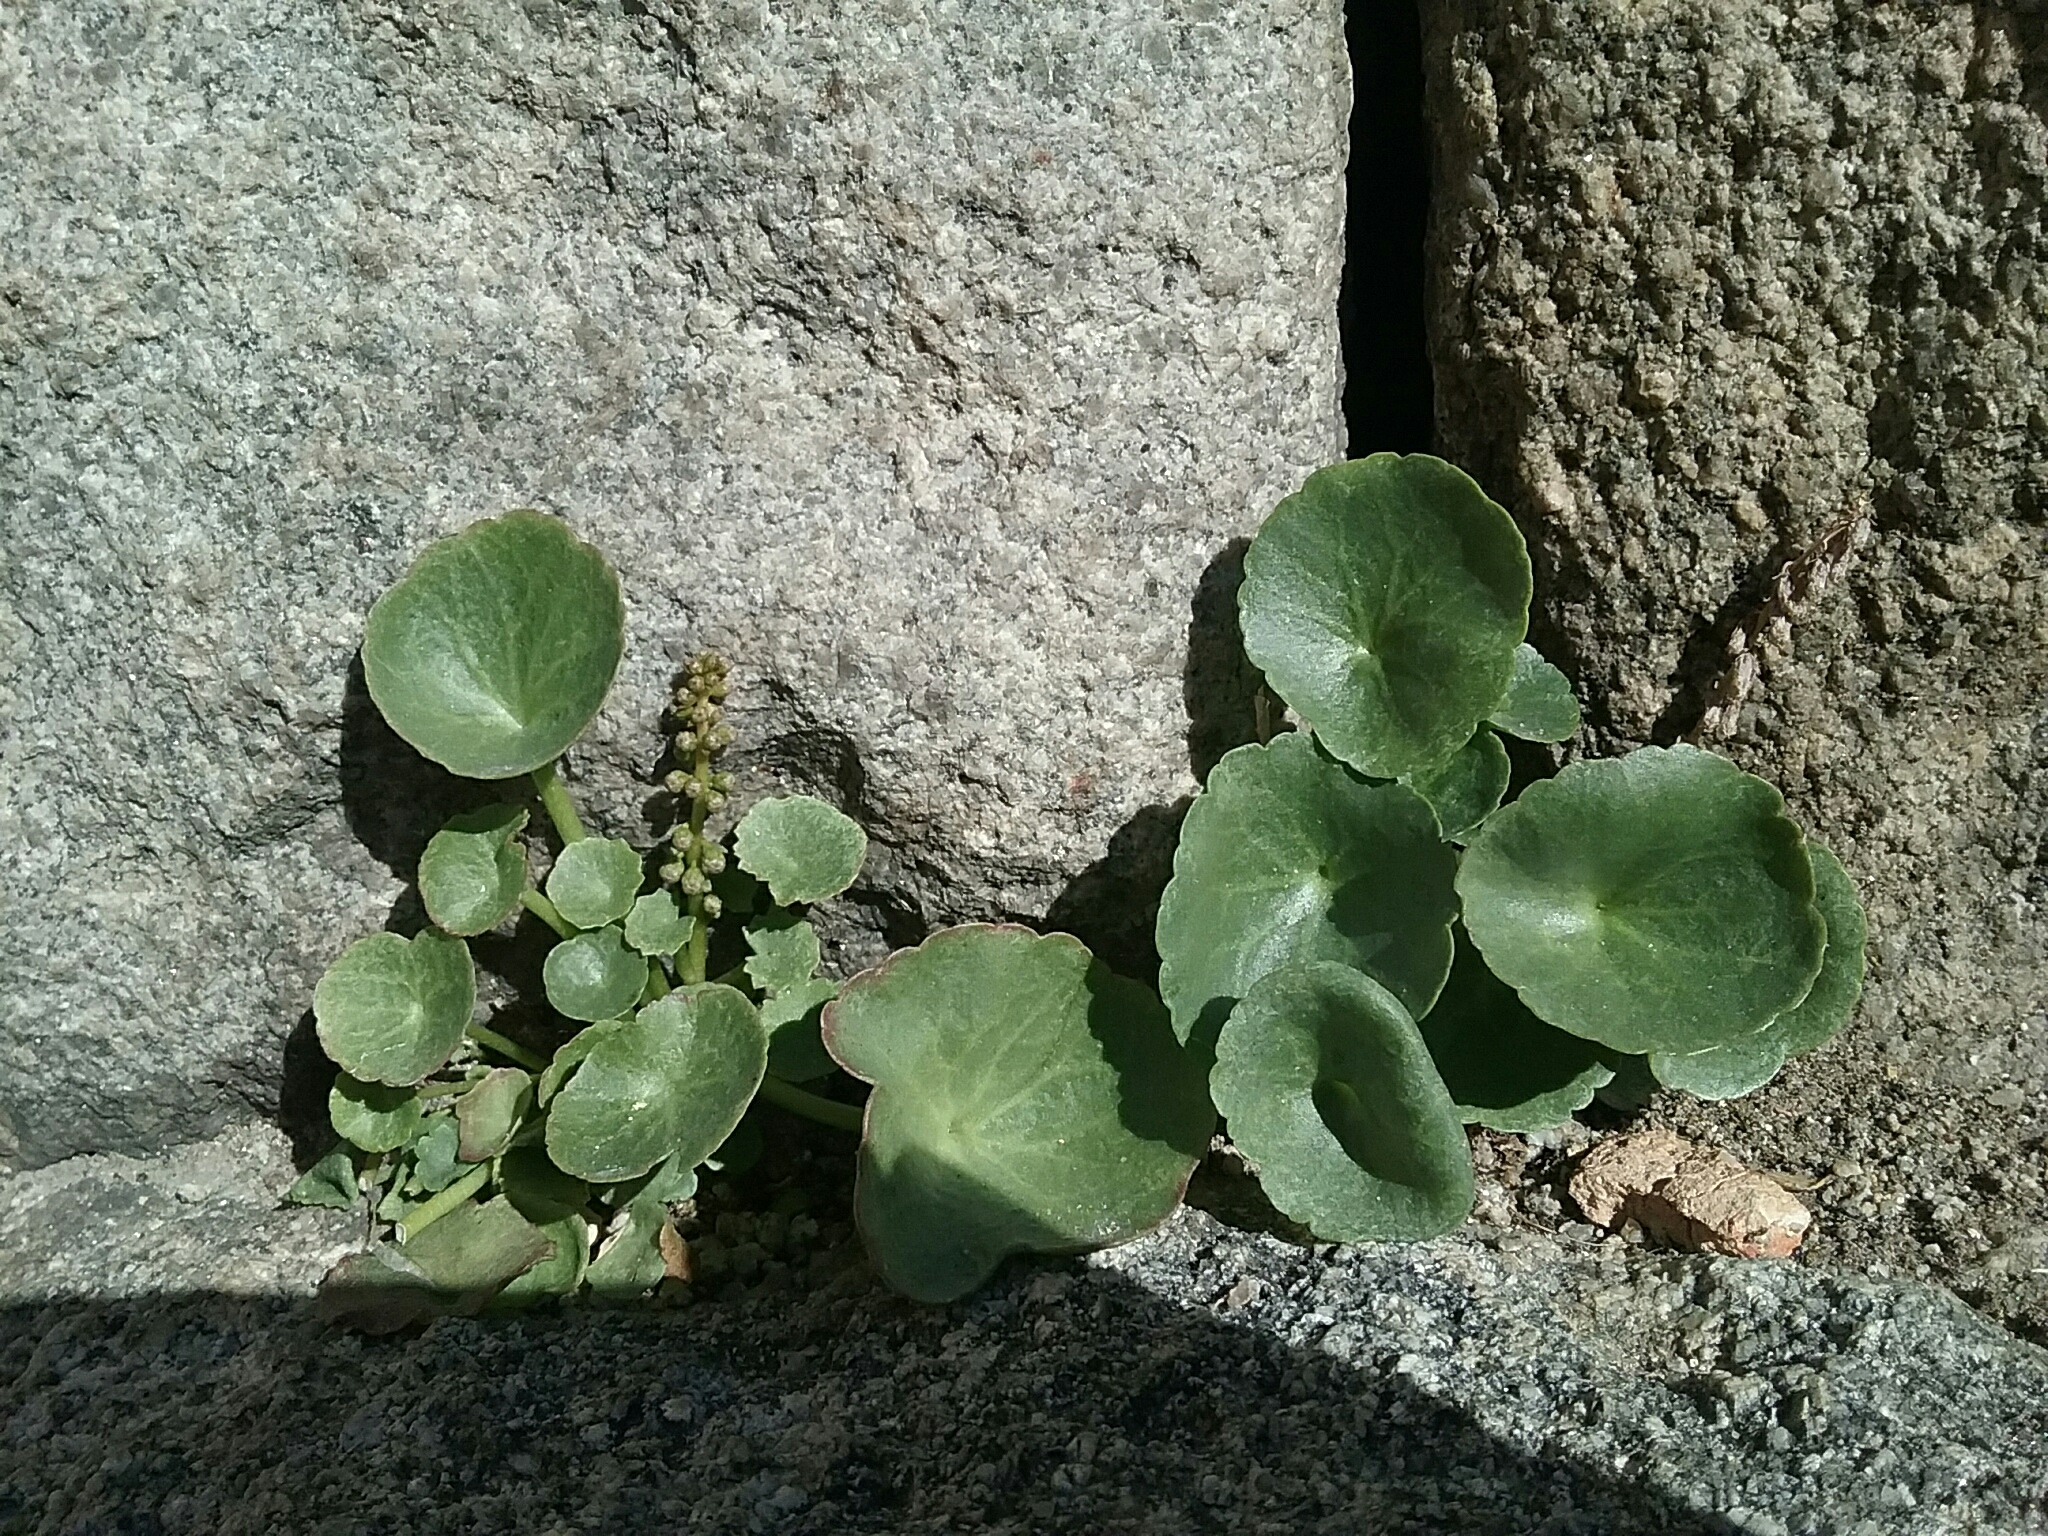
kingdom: Plantae
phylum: Tracheophyta
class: Magnoliopsida
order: Saxifragales
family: Crassulaceae
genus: Umbilicus
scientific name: Umbilicus rupestris
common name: Navelwort
